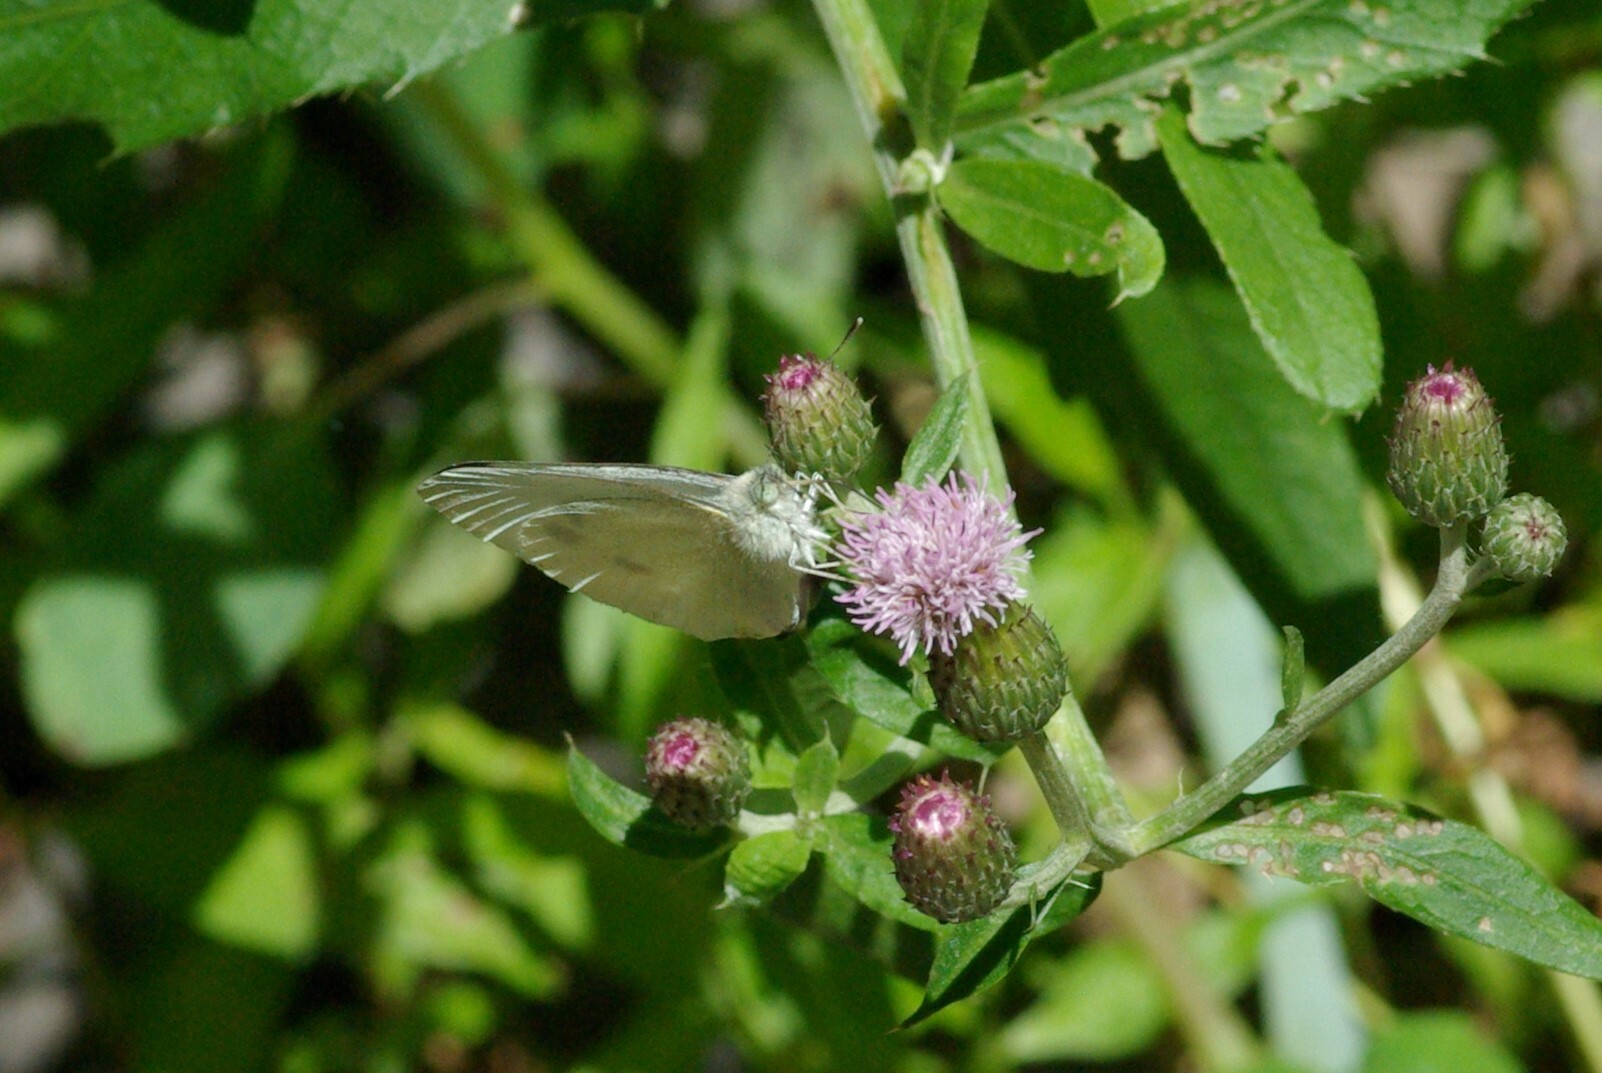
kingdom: Animalia
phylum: Arthropoda
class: Insecta
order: Lepidoptera
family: Pieridae
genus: Pieris
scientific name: Pieris rapae
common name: Small white
